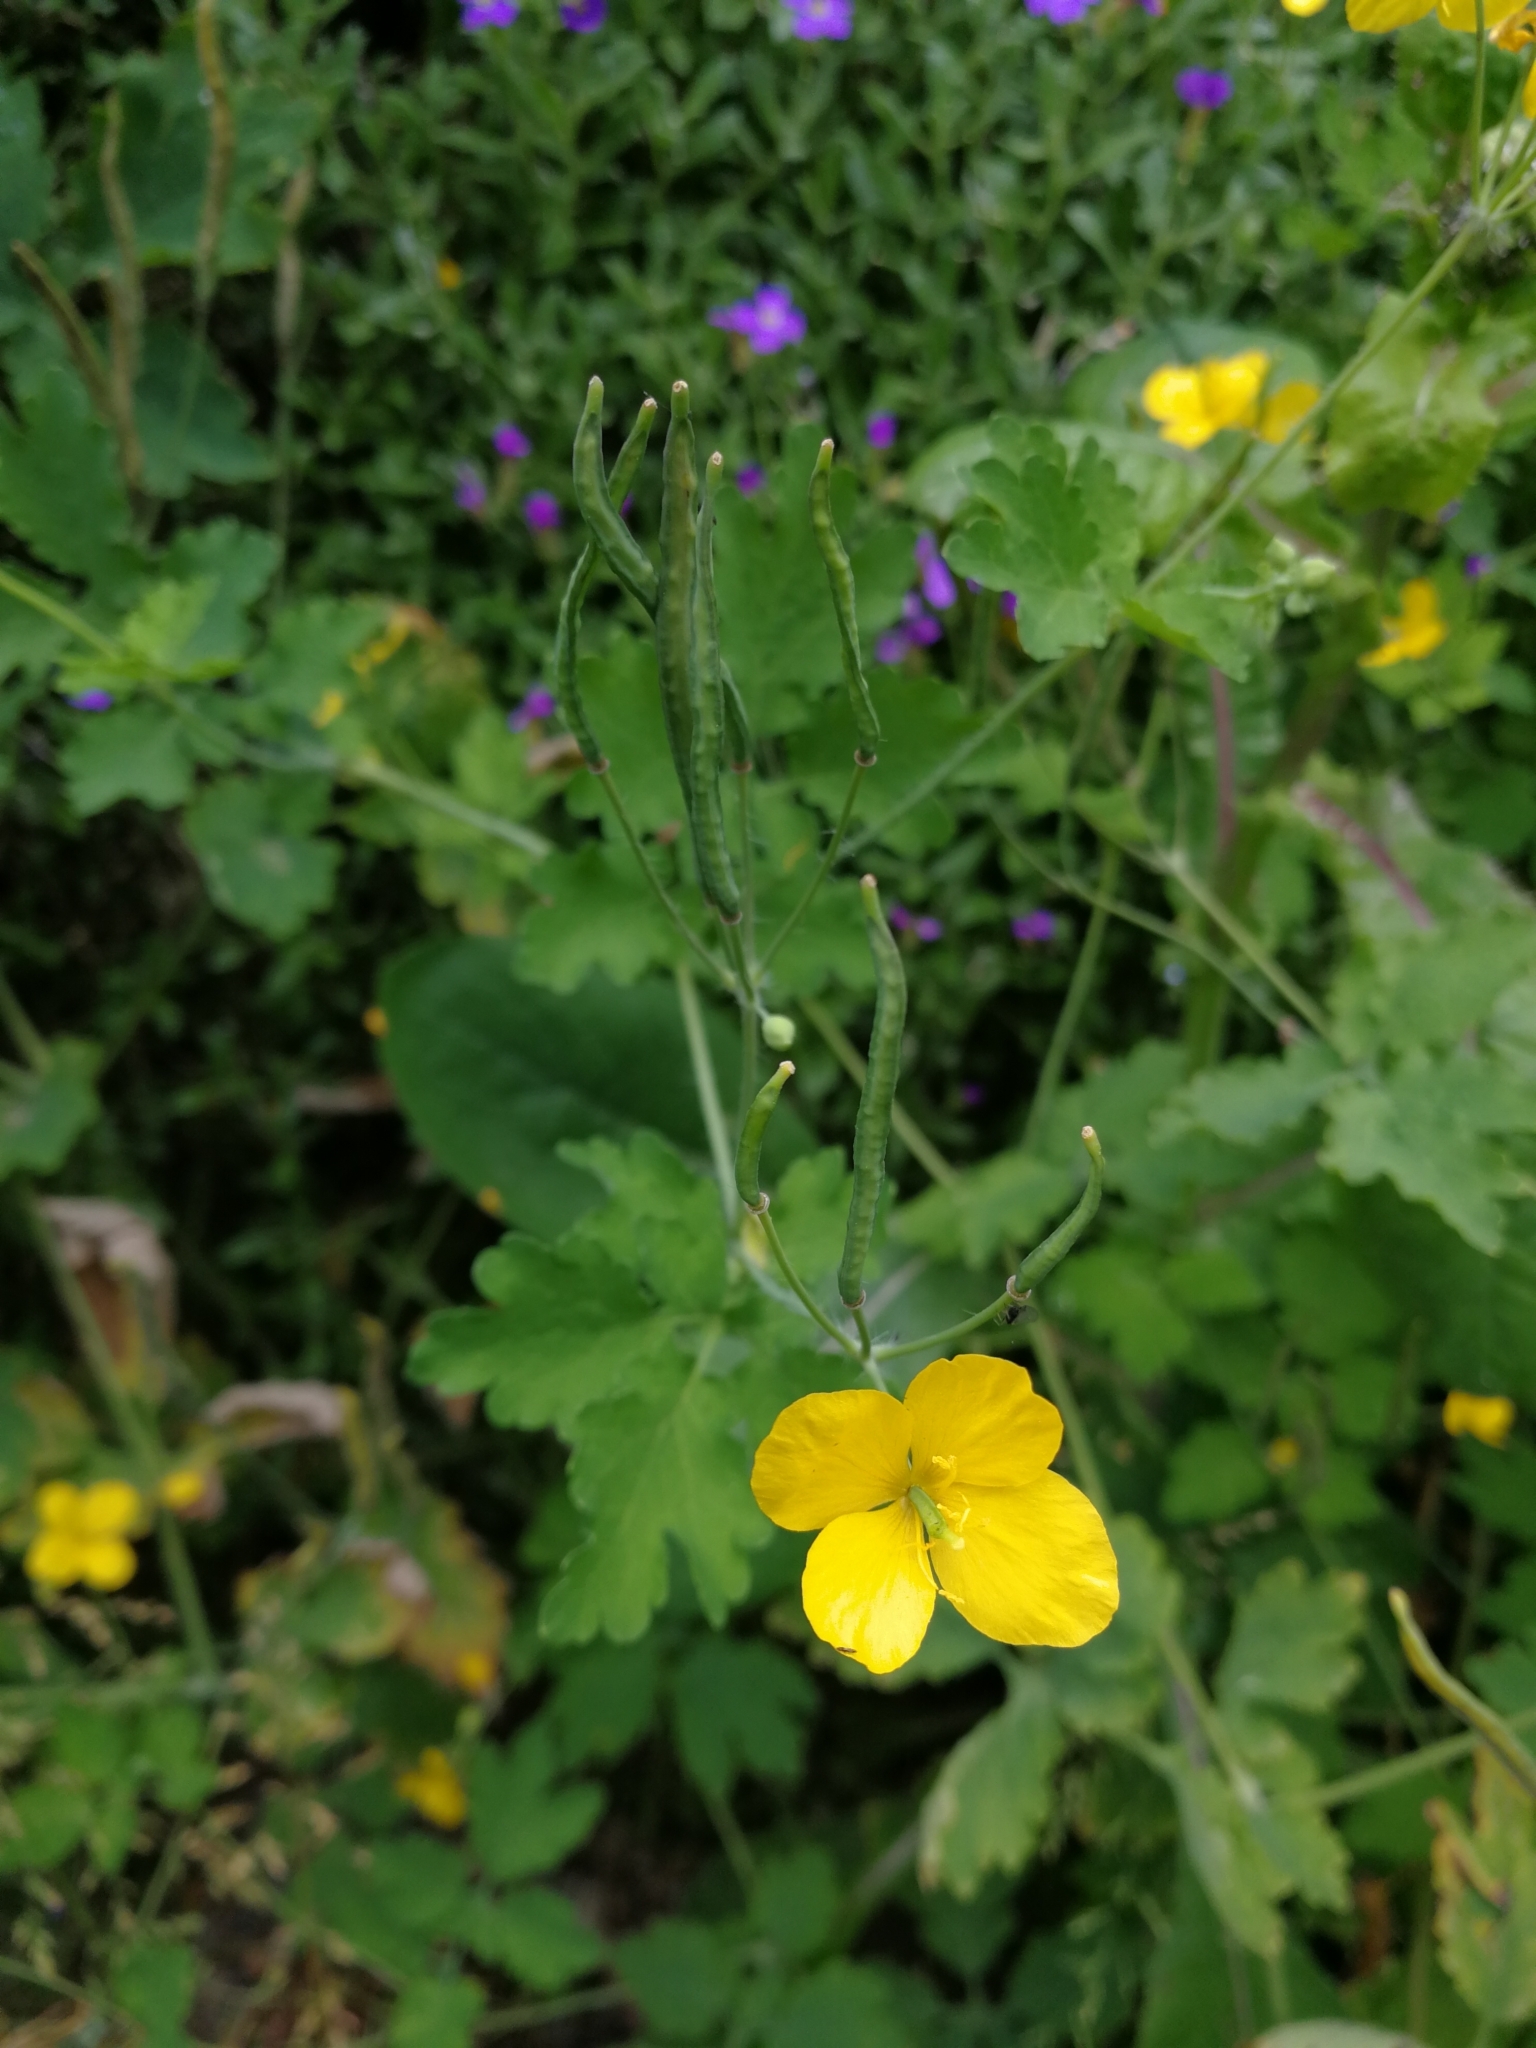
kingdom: Plantae
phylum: Tracheophyta
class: Magnoliopsida
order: Ranunculales
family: Papaveraceae
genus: Chelidonium
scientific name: Chelidonium majus
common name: Greater celandine
